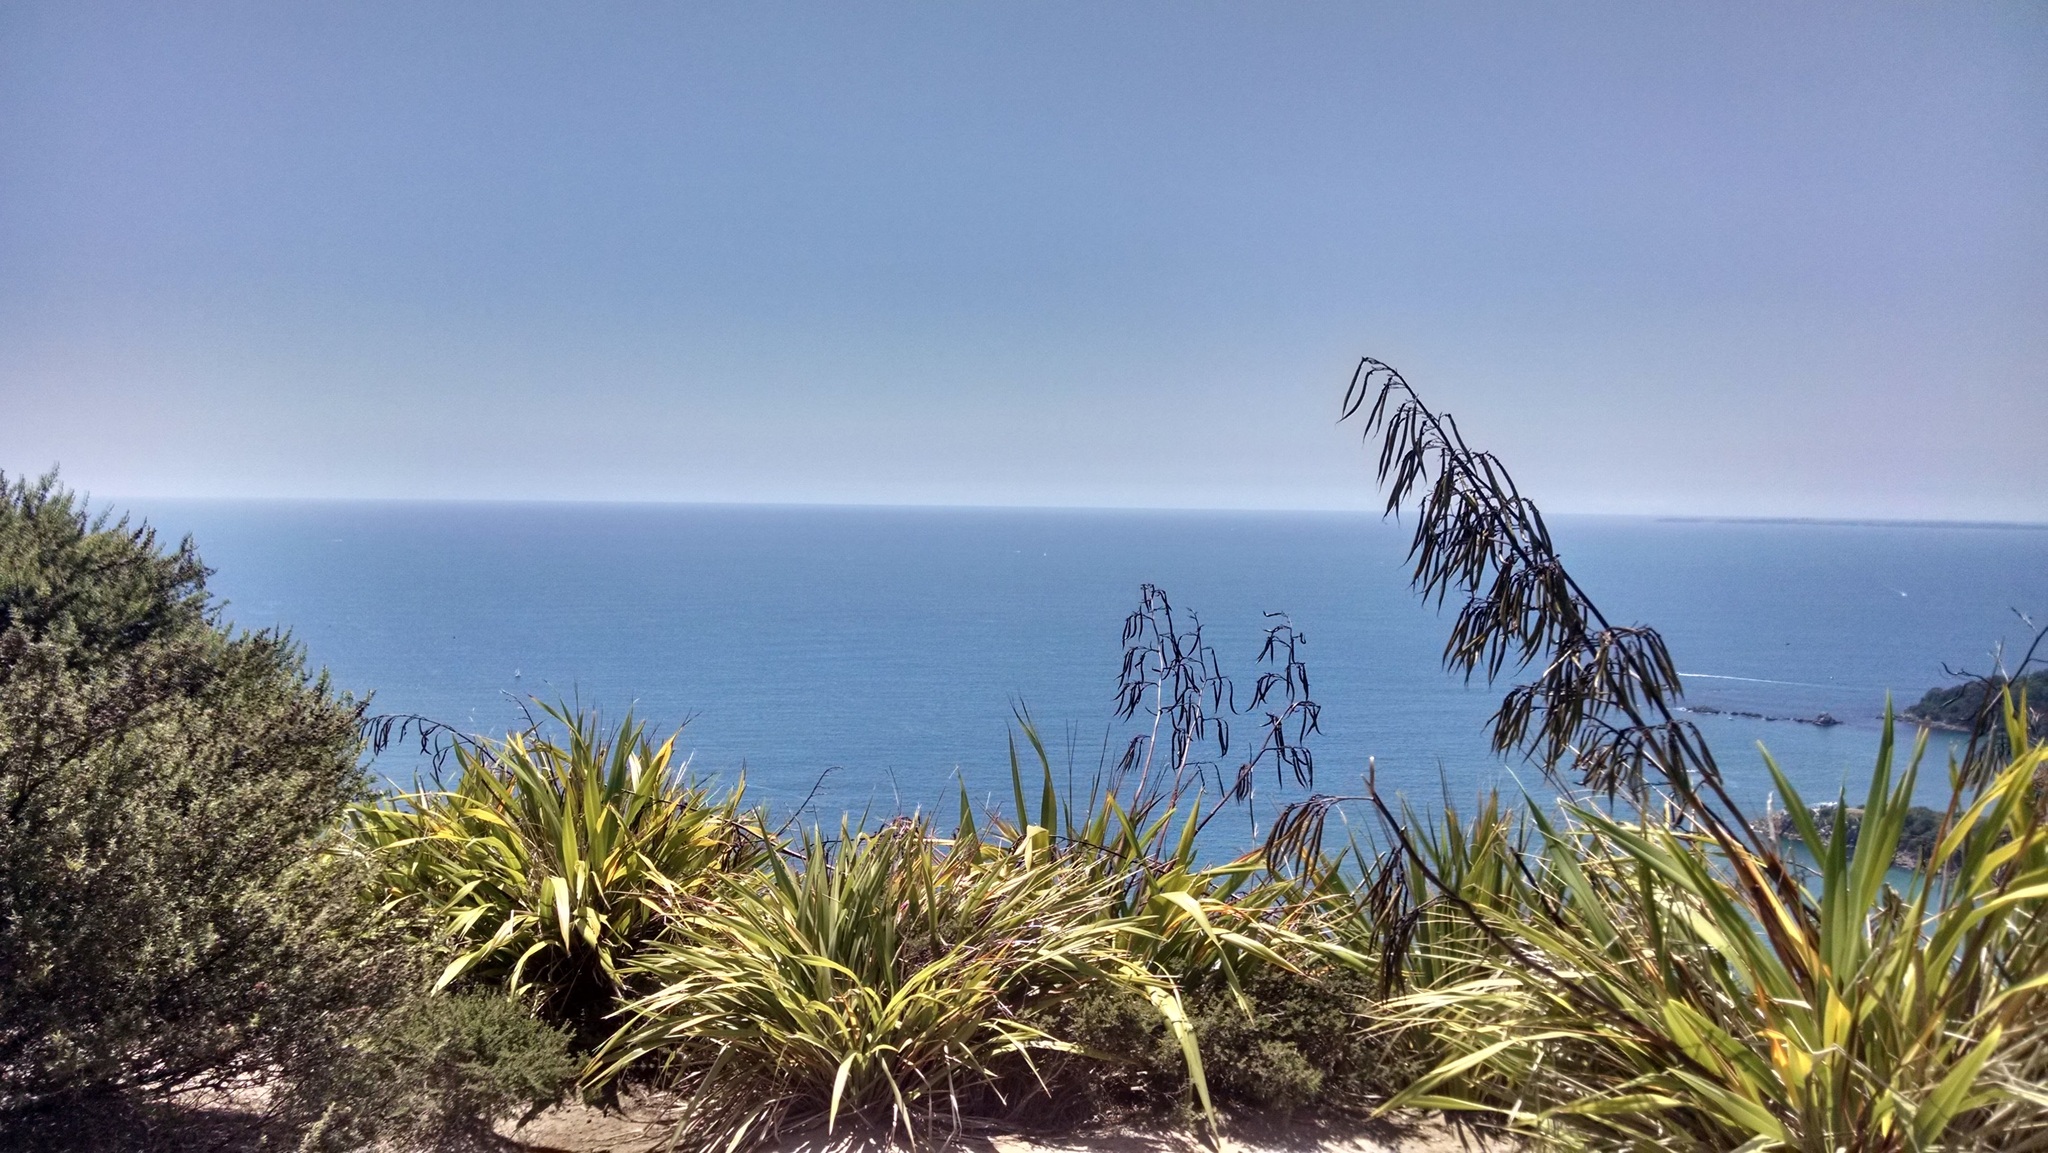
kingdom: Plantae
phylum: Tracheophyta
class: Liliopsida
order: Asparagales
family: Asphodelaceae
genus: Phormium
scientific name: Phormium colensoi
